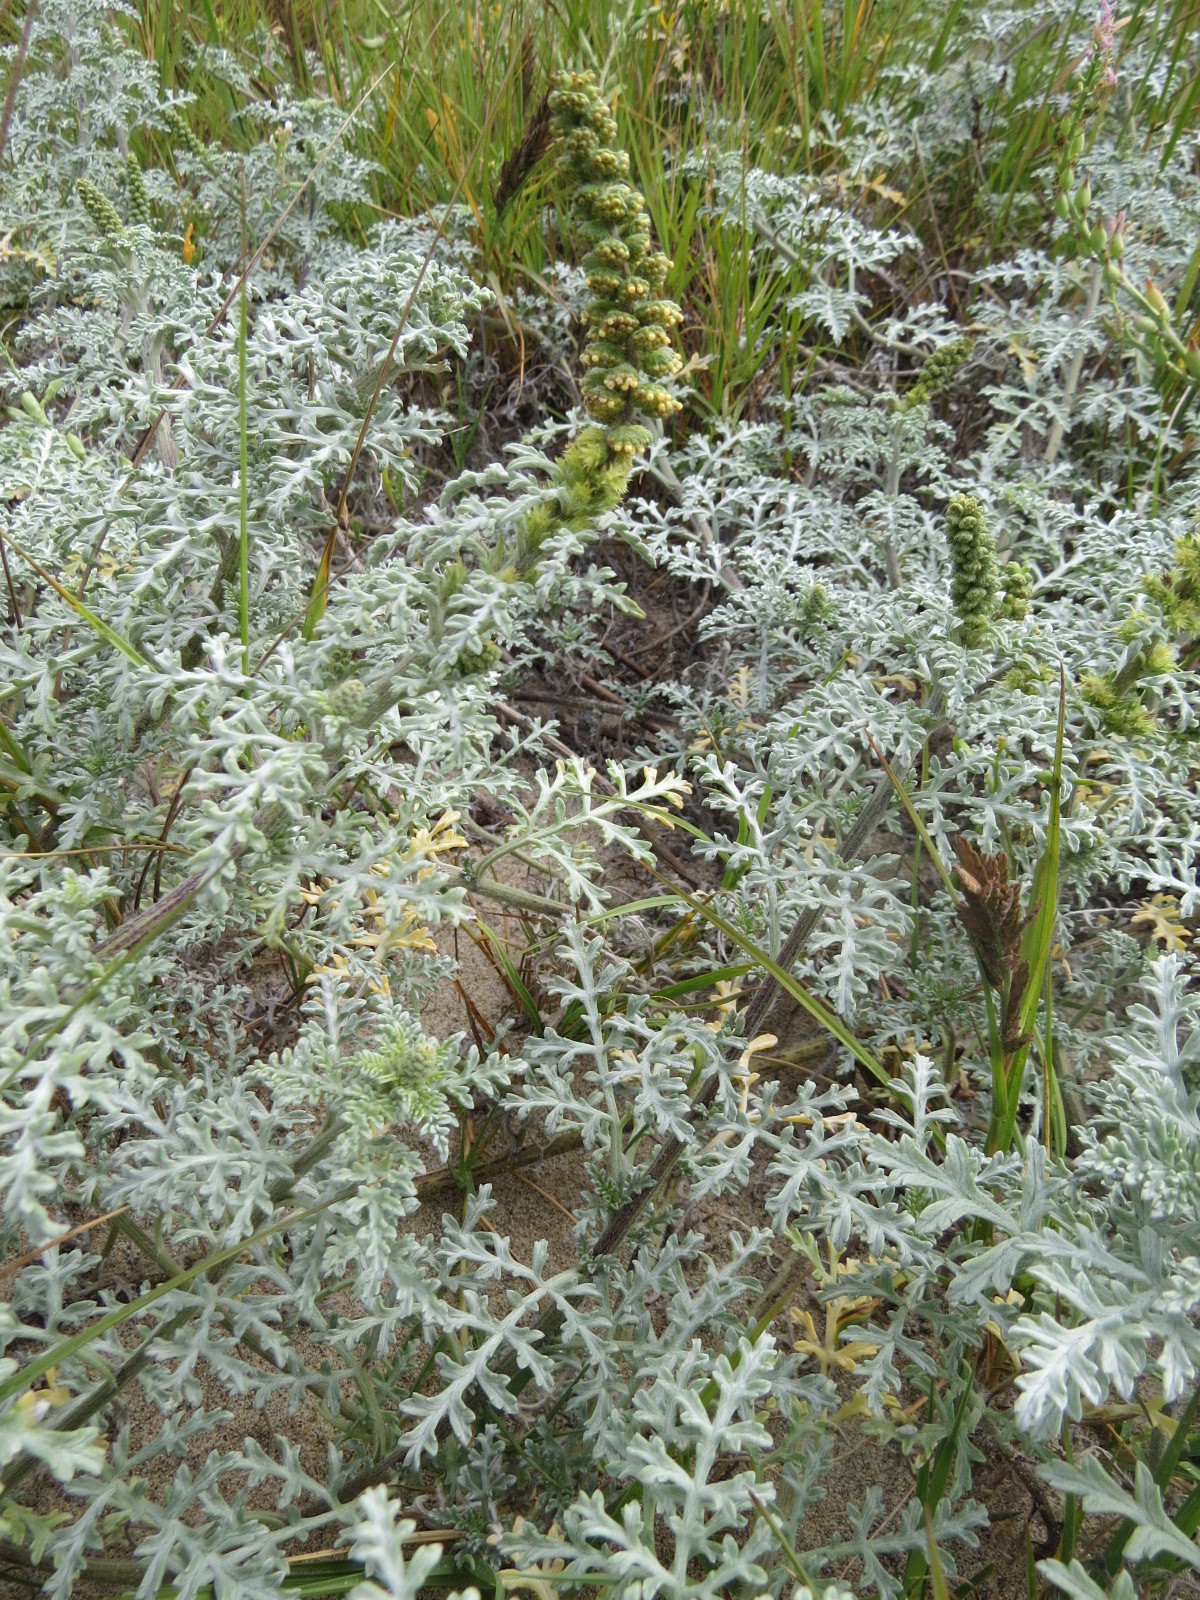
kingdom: Plantae
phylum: Tracheophyta
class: Magnoliopsida
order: Asterales
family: Asteraceae
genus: Ambrosia
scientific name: Ambrosia chamissonis
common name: Beachbur
